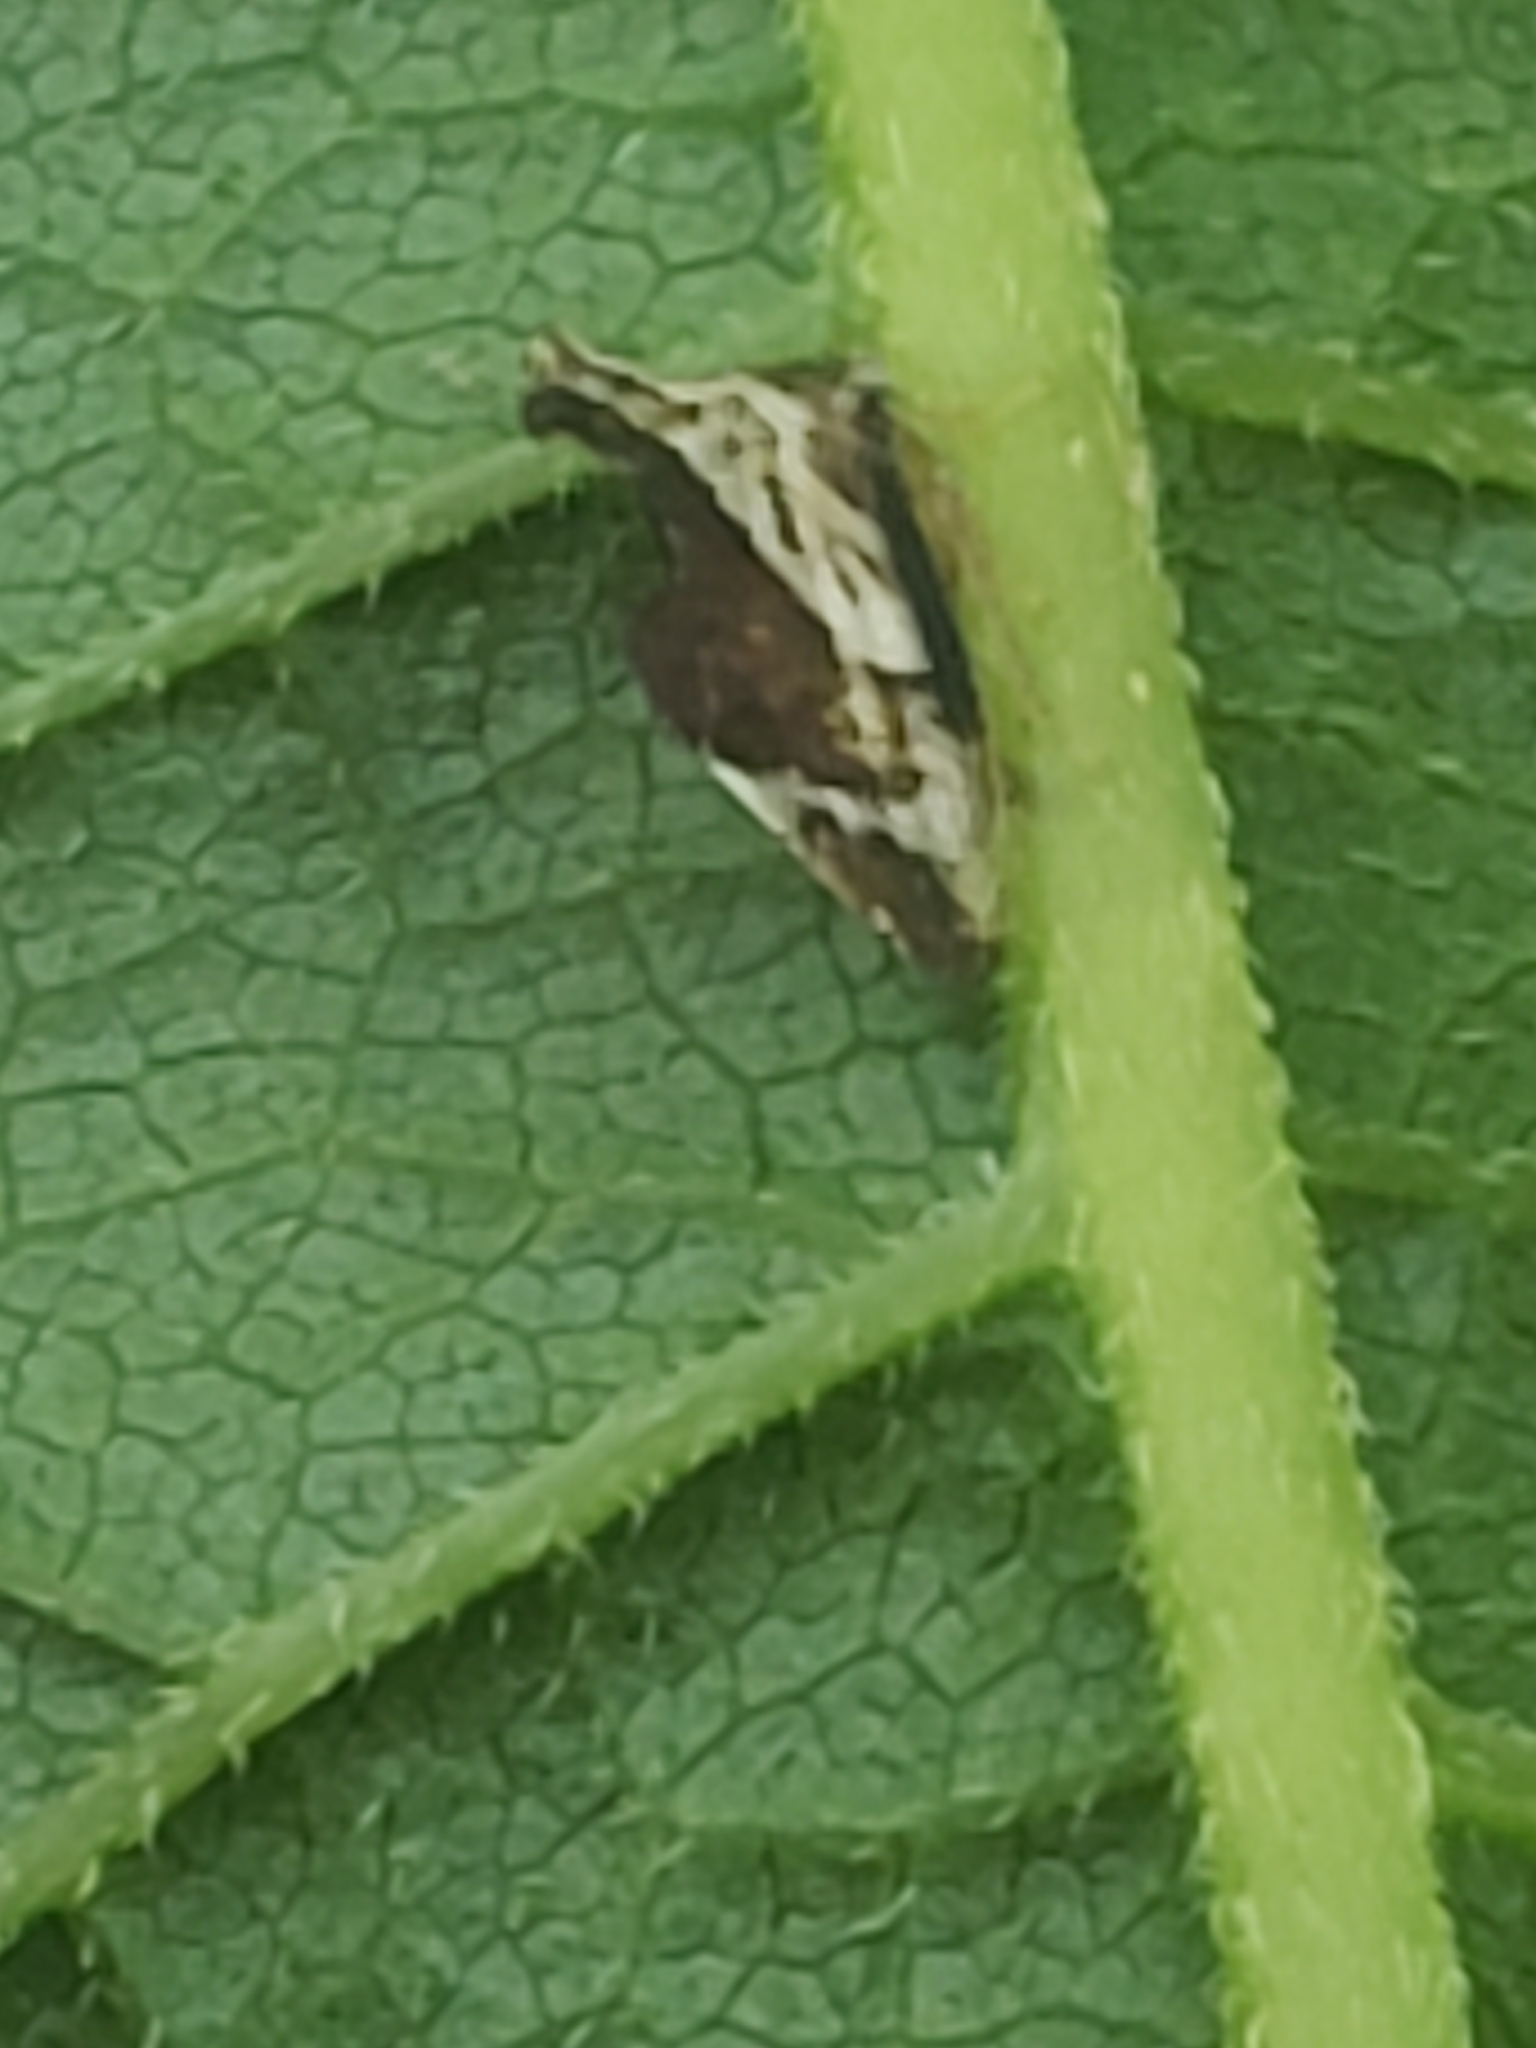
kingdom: Animalia
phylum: Arthropoda
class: Insecta
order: Hemiptera
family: Membracidae
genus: Entylia
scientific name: Entylia carinata
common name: Keeled treehopper
